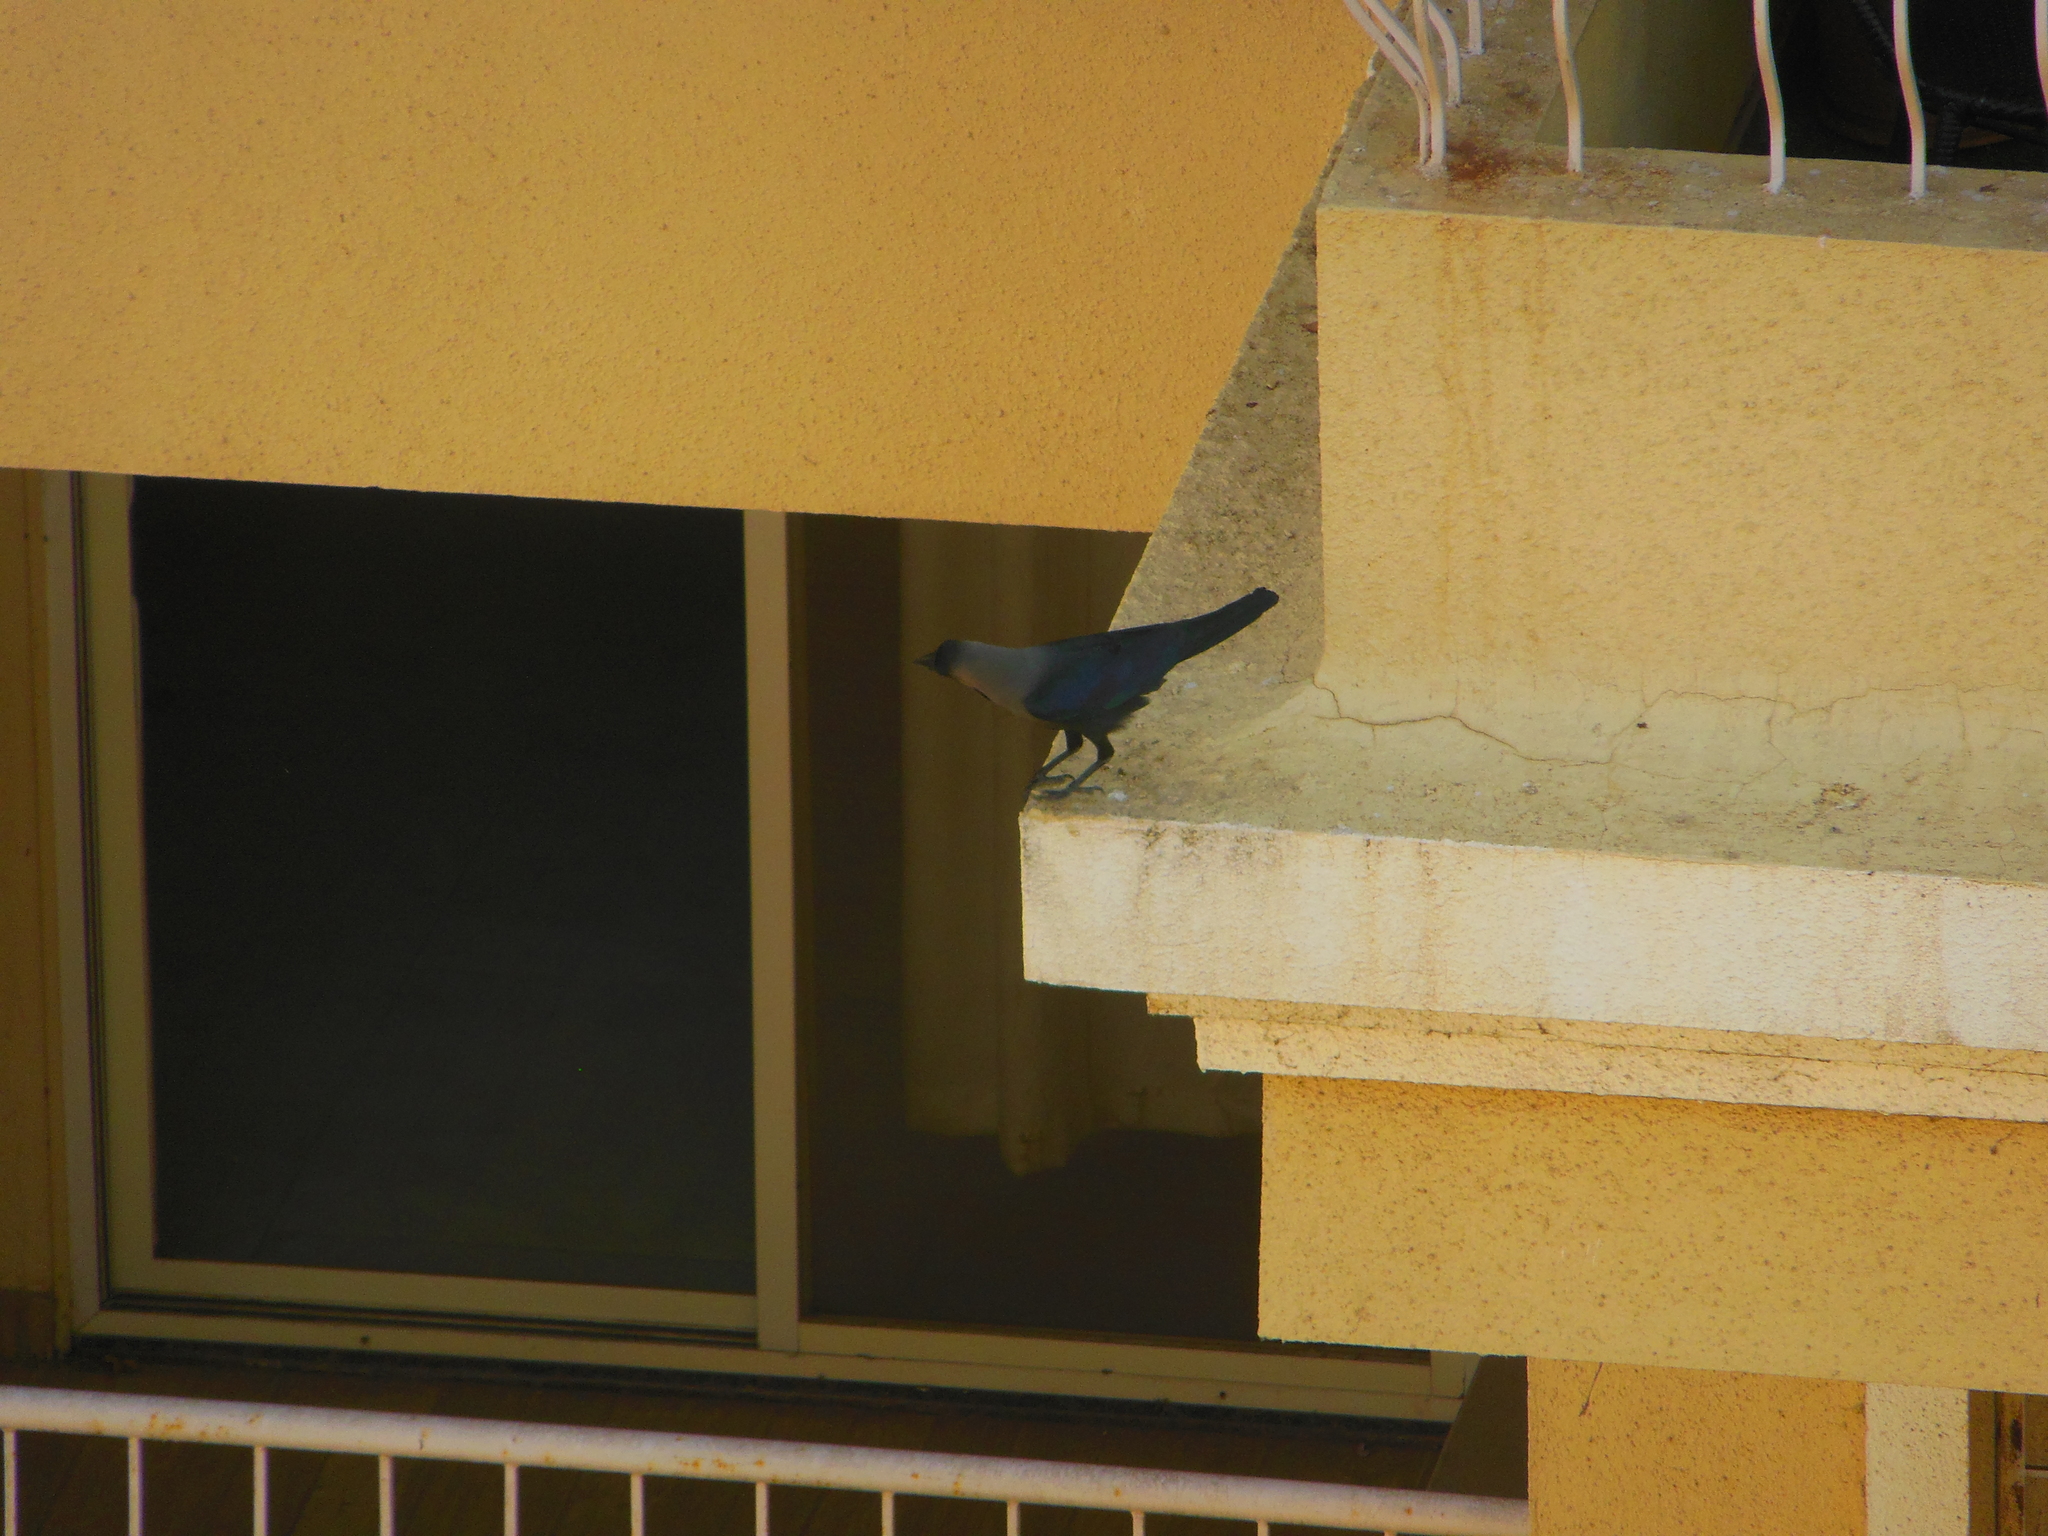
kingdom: Animalia
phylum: Chordata
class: Aves
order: Passeriformes
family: Corvidae
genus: Corvus
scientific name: Corvus splendens
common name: House crow
